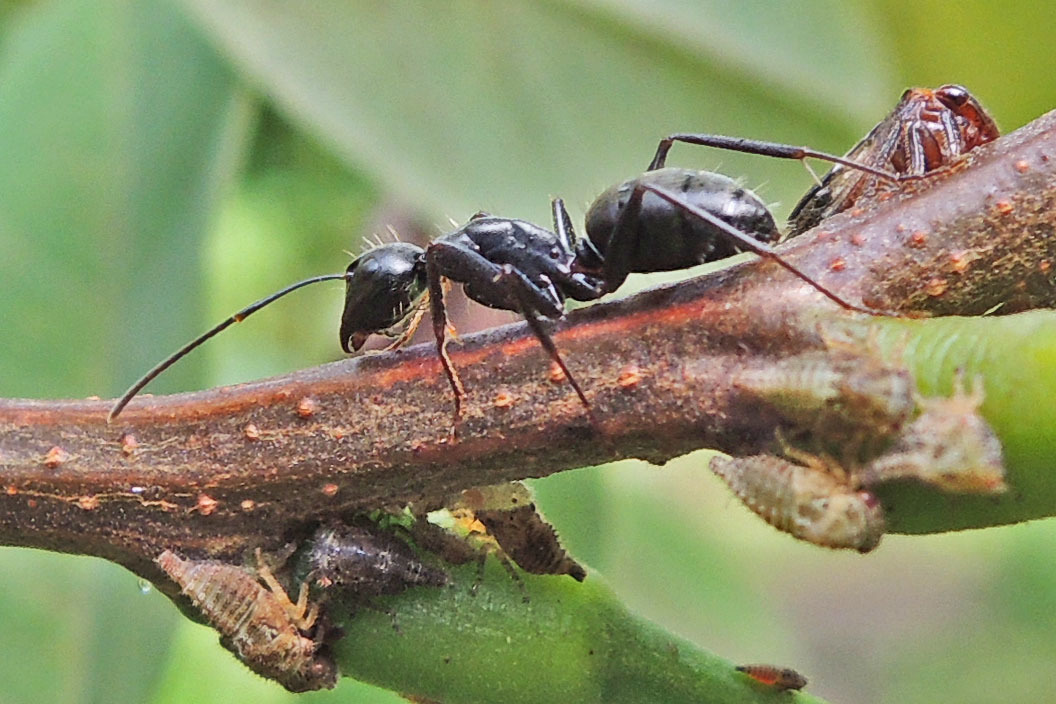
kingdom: Animalia
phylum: Arthropoda
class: Insecta
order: Hymenoptera
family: Formicidae
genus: Camponotus
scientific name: Camponotus pennsylvanicus
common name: Black carpenter ant
